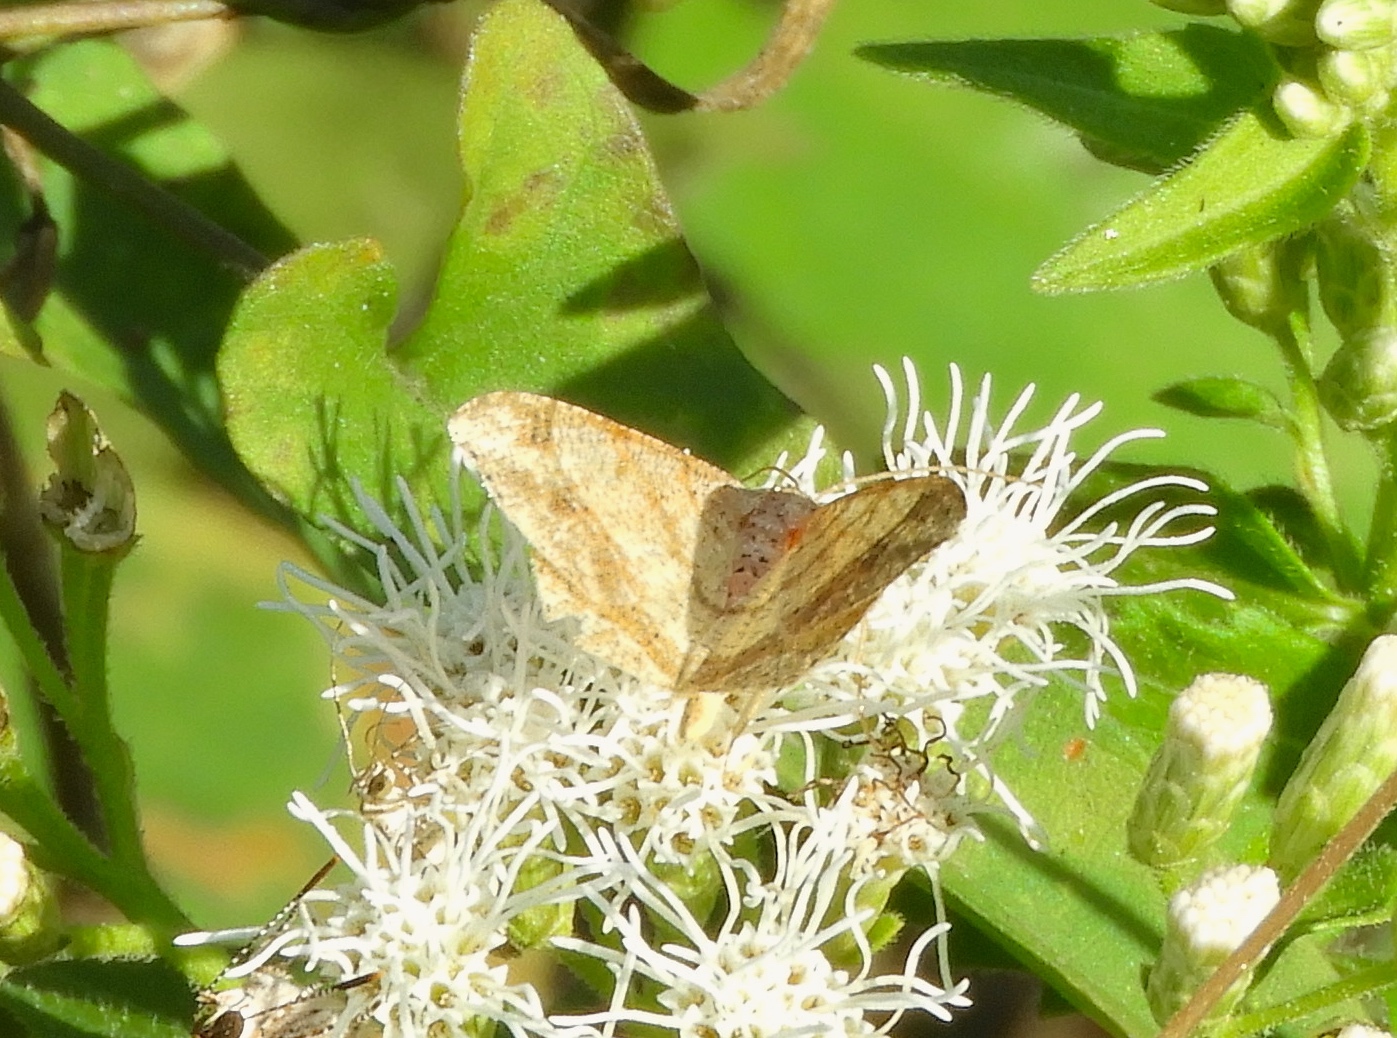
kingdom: Animalia
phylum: Arthropoda
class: Insecta
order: Lepidoptera
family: Geometridae
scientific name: Geometridae
